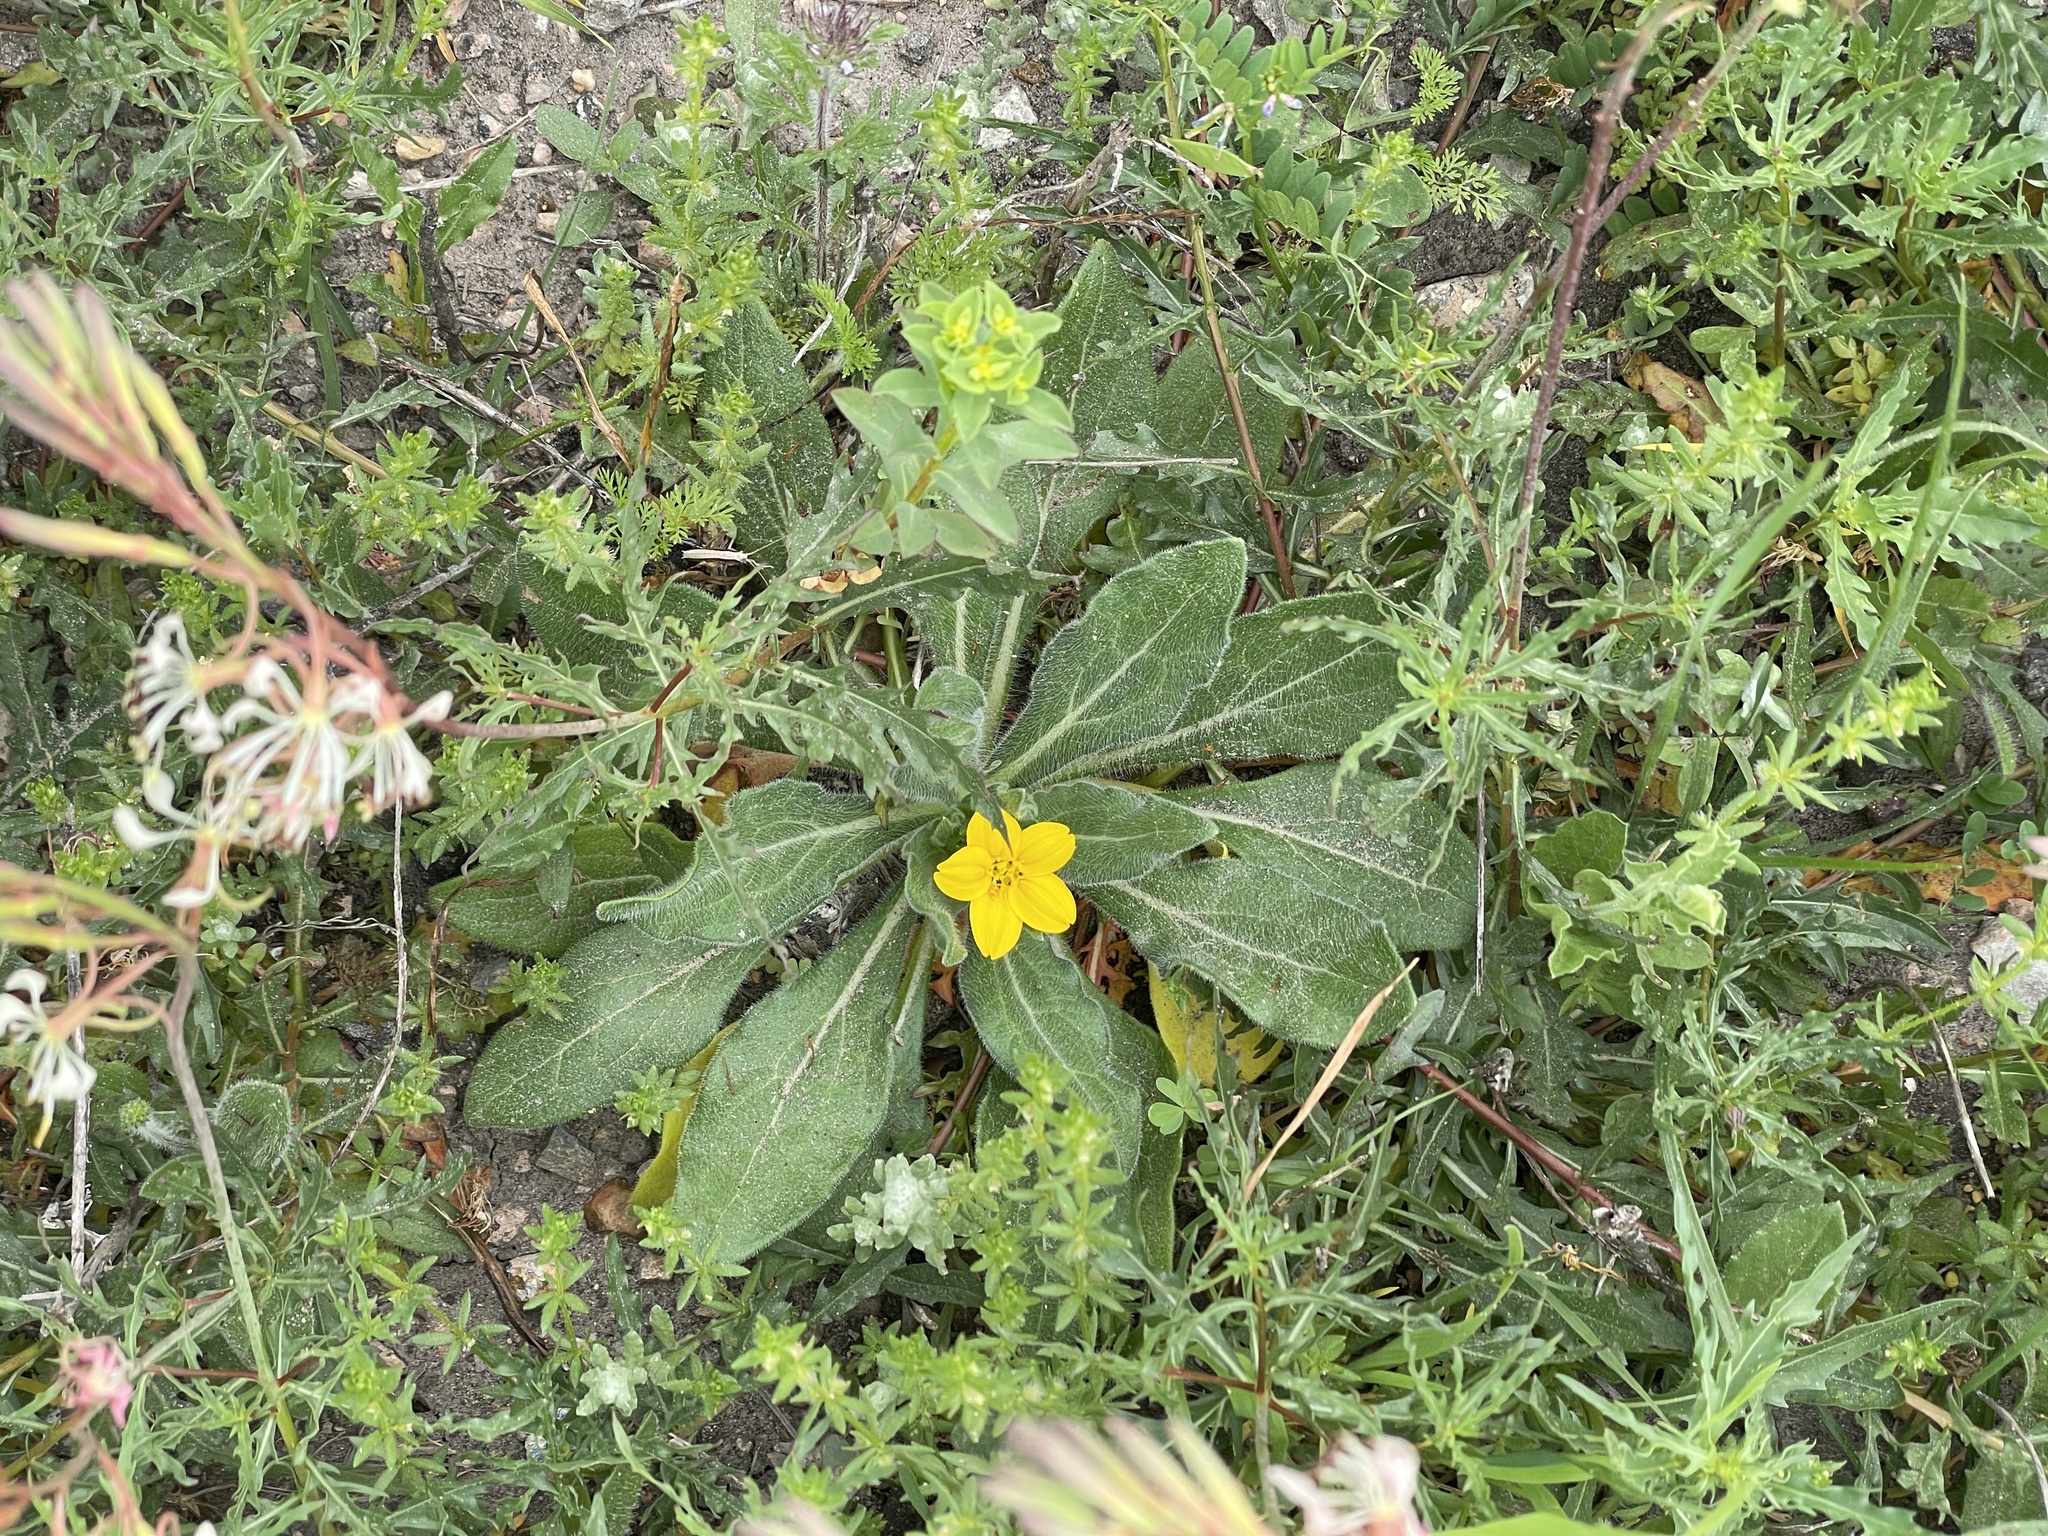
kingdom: Plantae
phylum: Tracheophyta
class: Magnoliopsida
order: Asterales
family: Asteraceae
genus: Lindheimera
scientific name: Lindheimera texana
